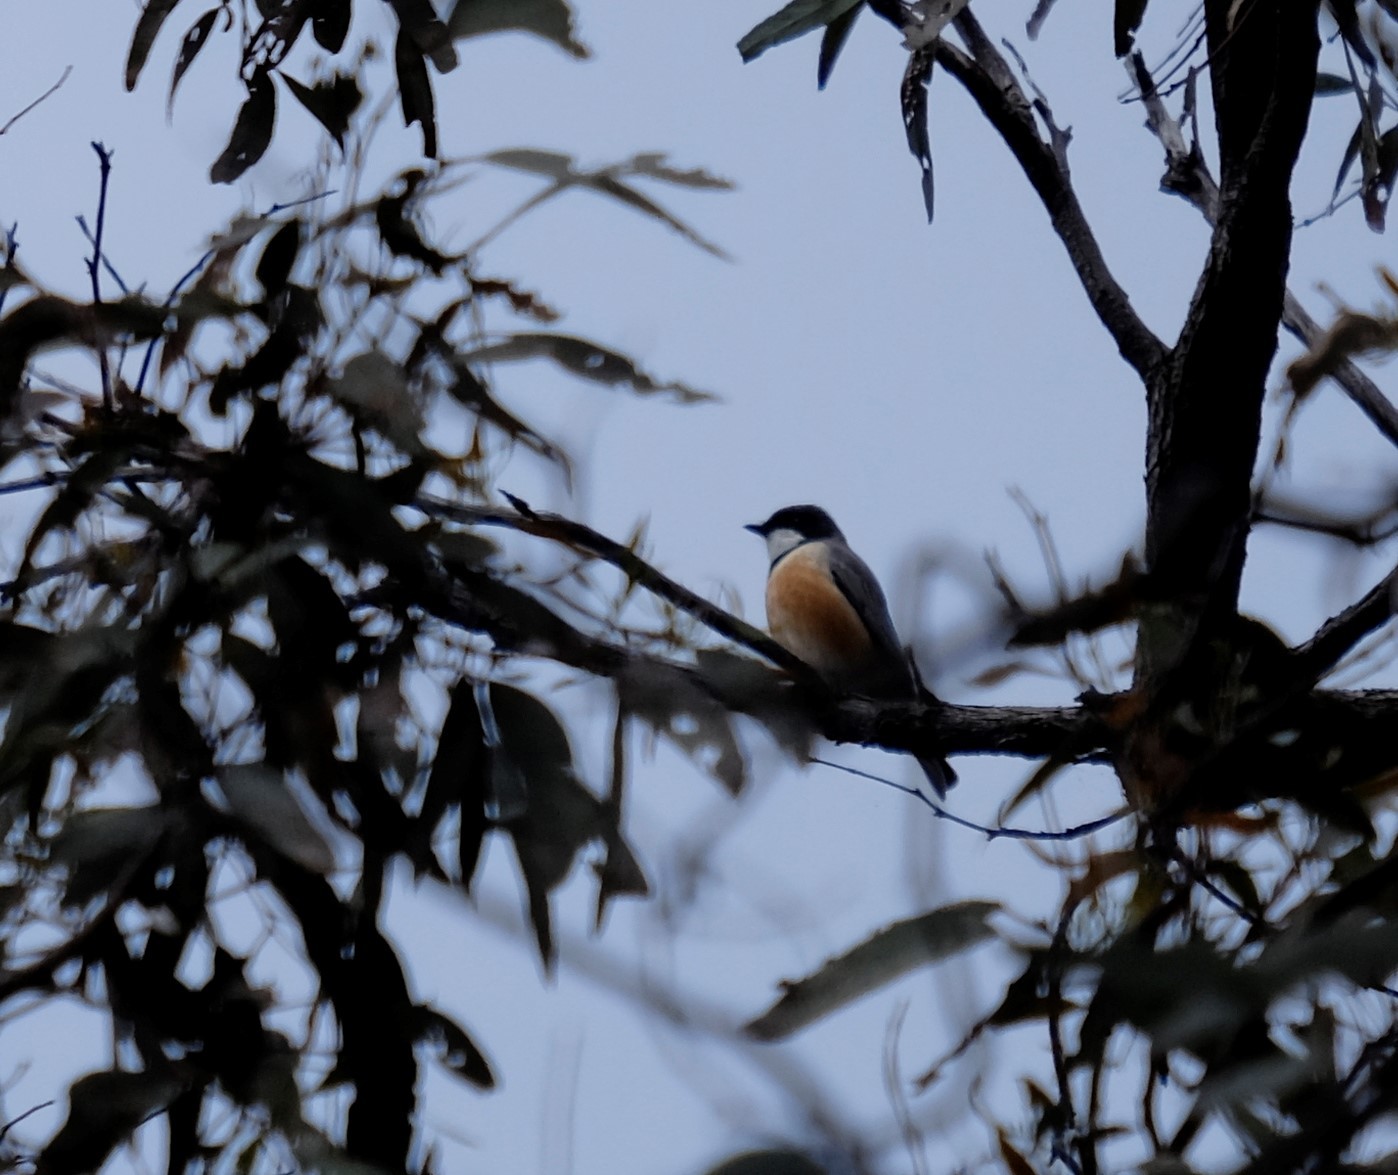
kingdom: Animalia
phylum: Chordata
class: Aves
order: Passeriformes
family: Pachycephalidae
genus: Pachycephala
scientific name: Pachycephala rufiventris
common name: Rufous whistler
